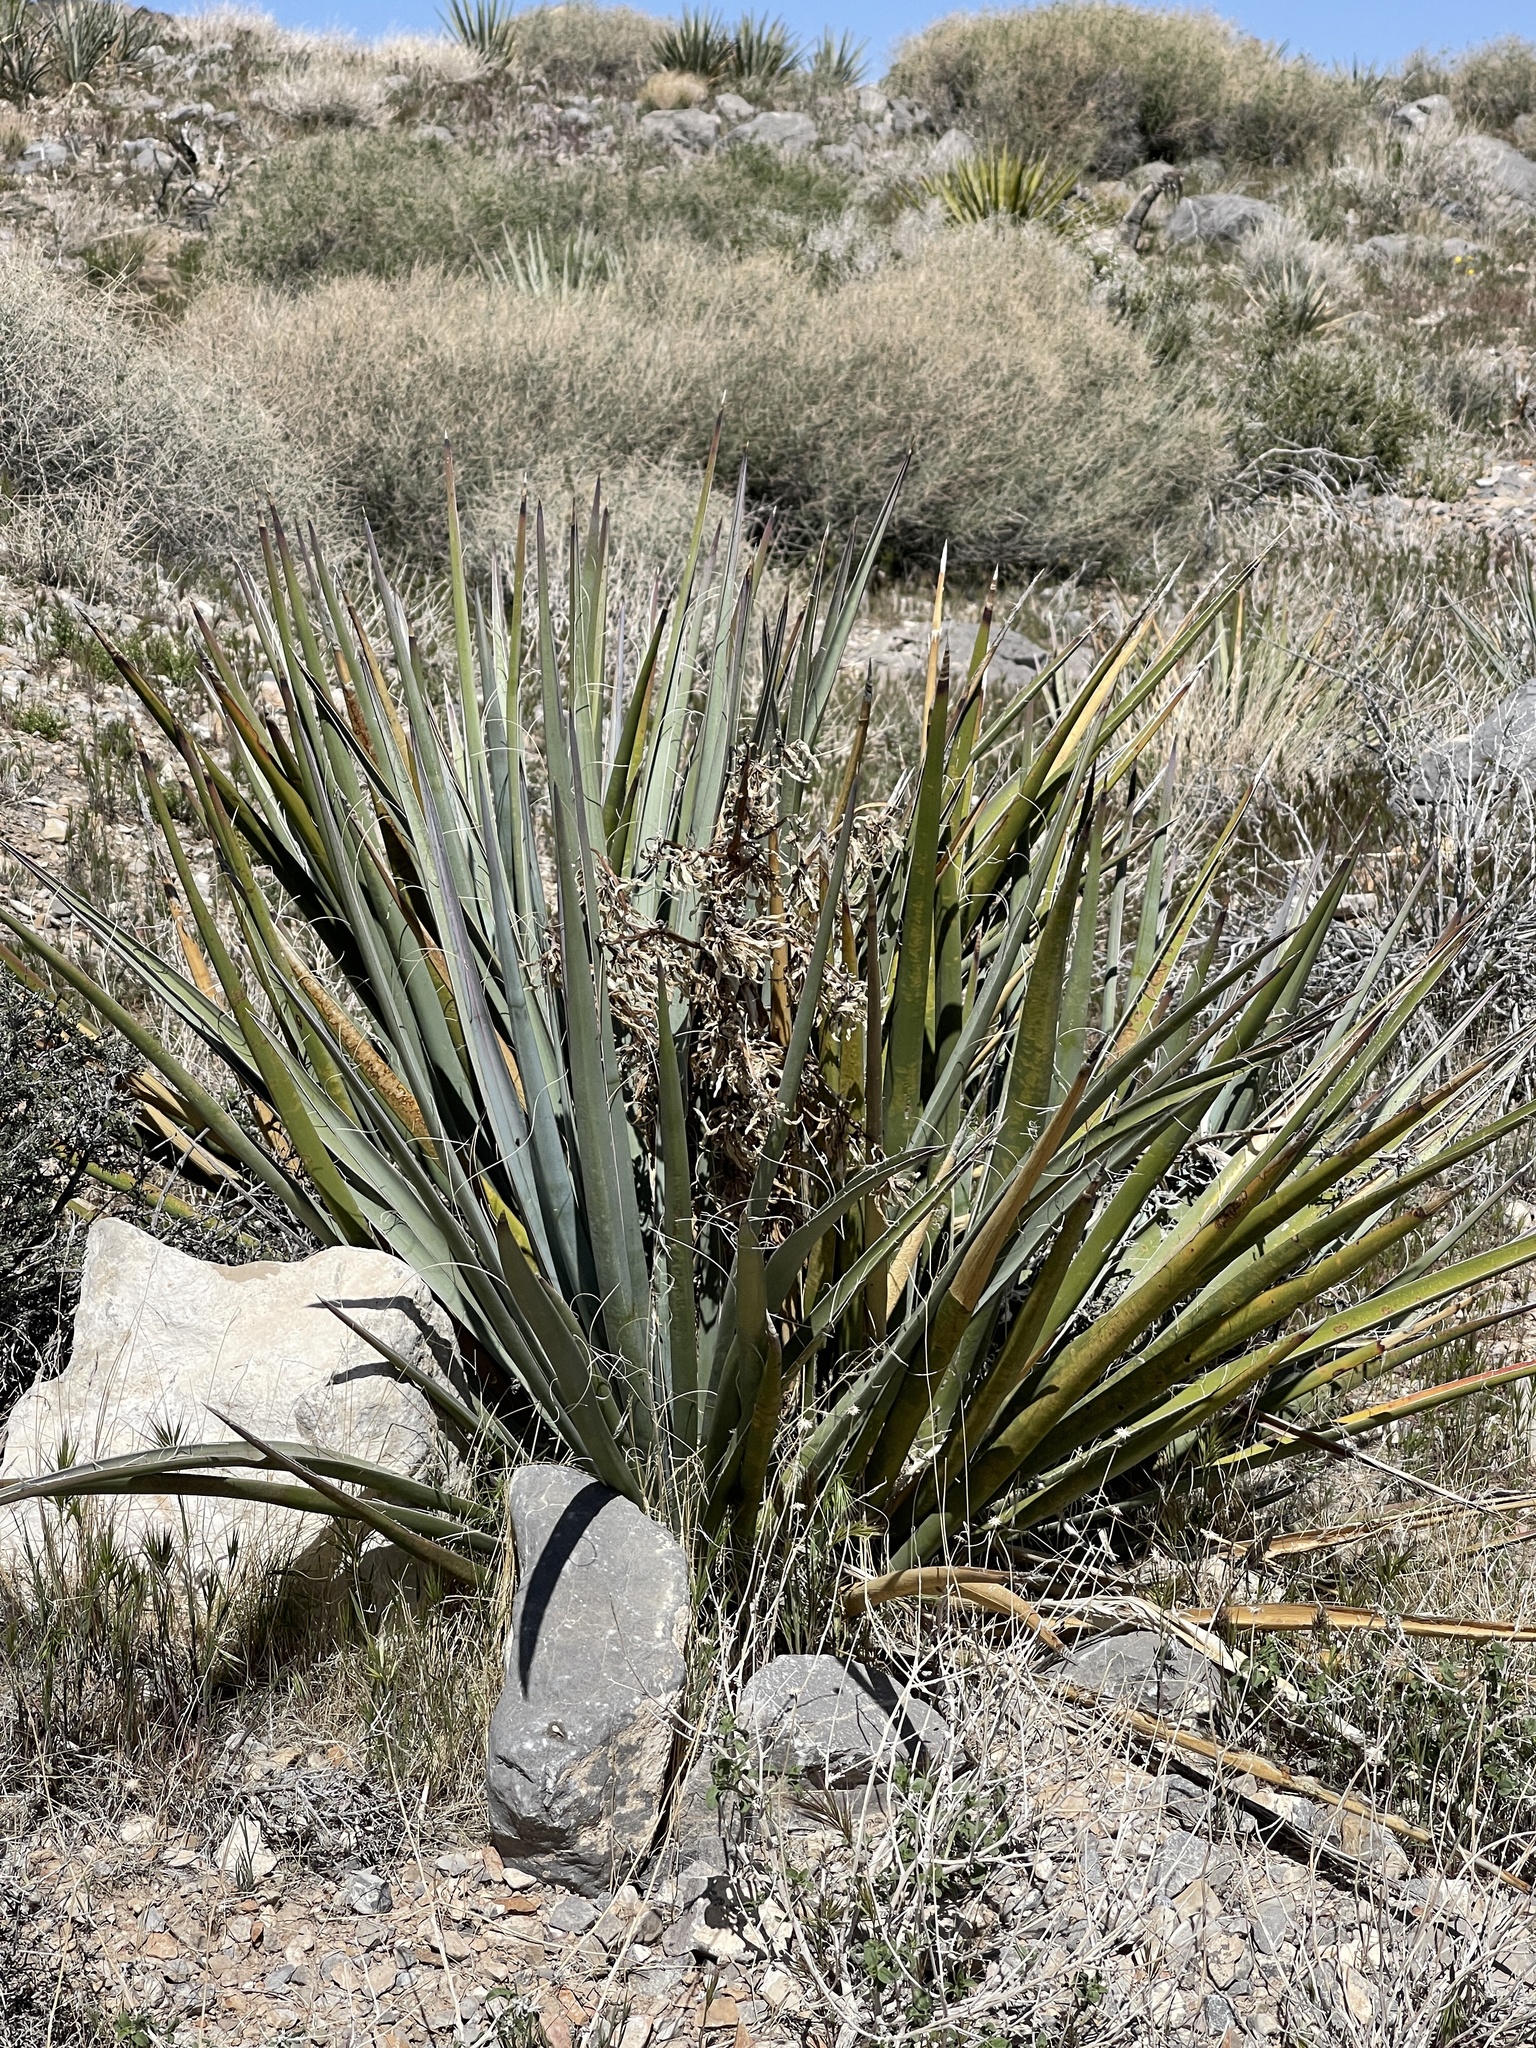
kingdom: Plantae
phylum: Tracheophyta
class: Liliopsida
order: Asparagales
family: Asparagaceae
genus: Yucca
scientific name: Yucca baccata
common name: Banana yucca
